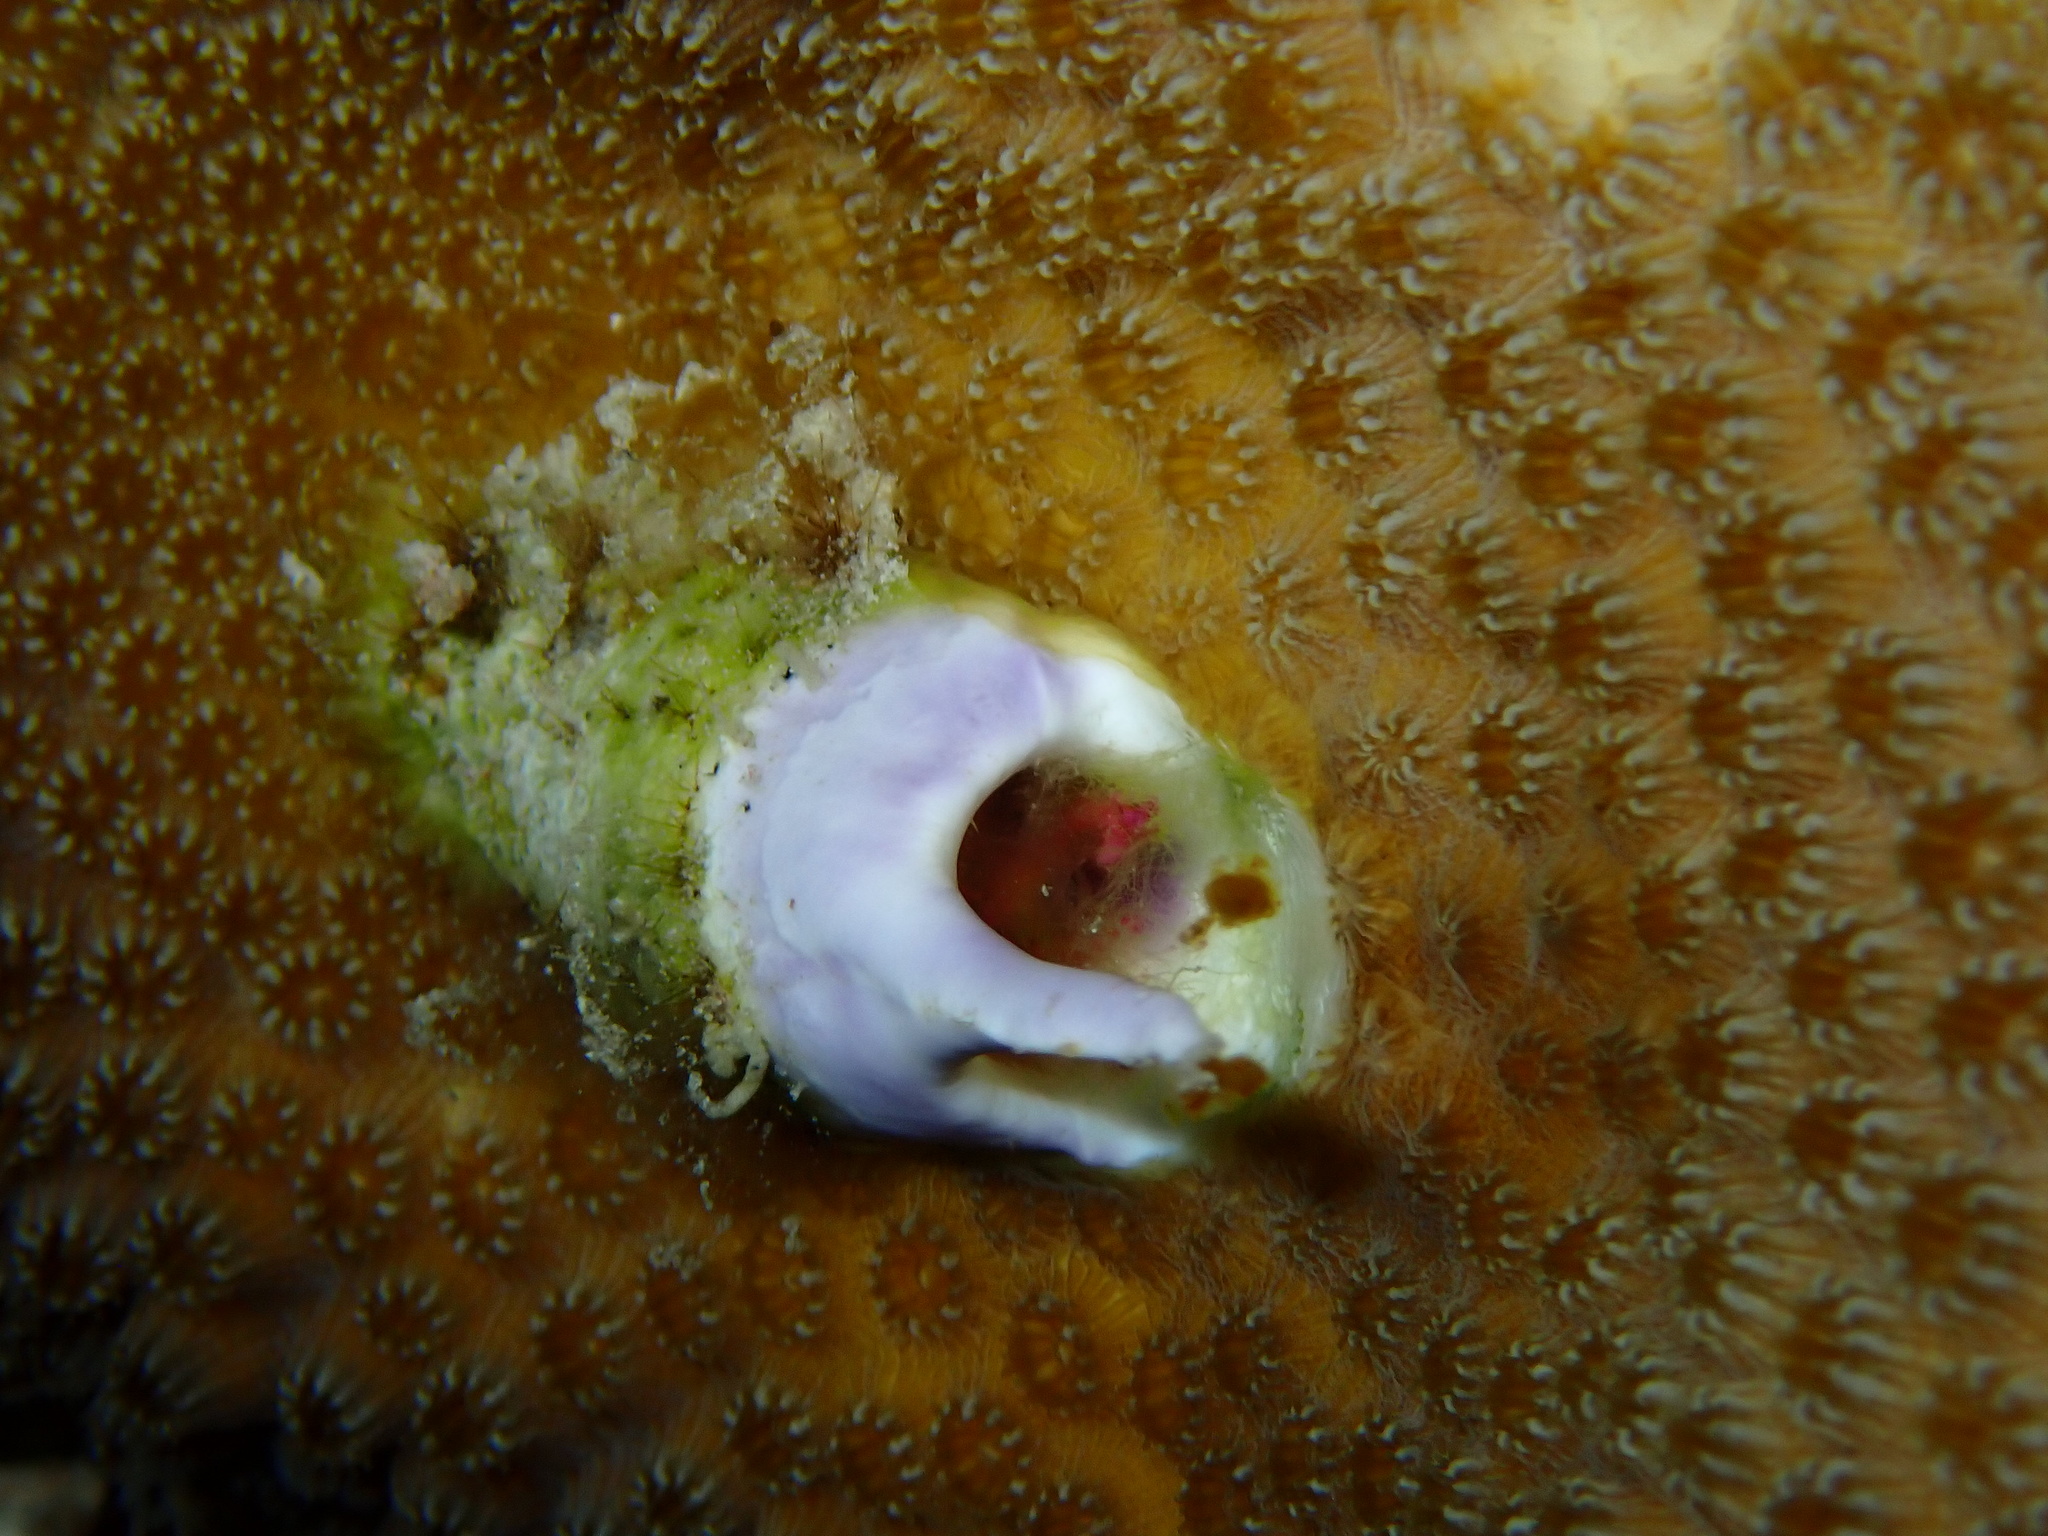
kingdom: Animalia
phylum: Annelida
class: Polychaeta
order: Sabellida
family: Serpulidae
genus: Spirobranchus
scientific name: Spirobranchus giganteus
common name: Christmas tree worm
